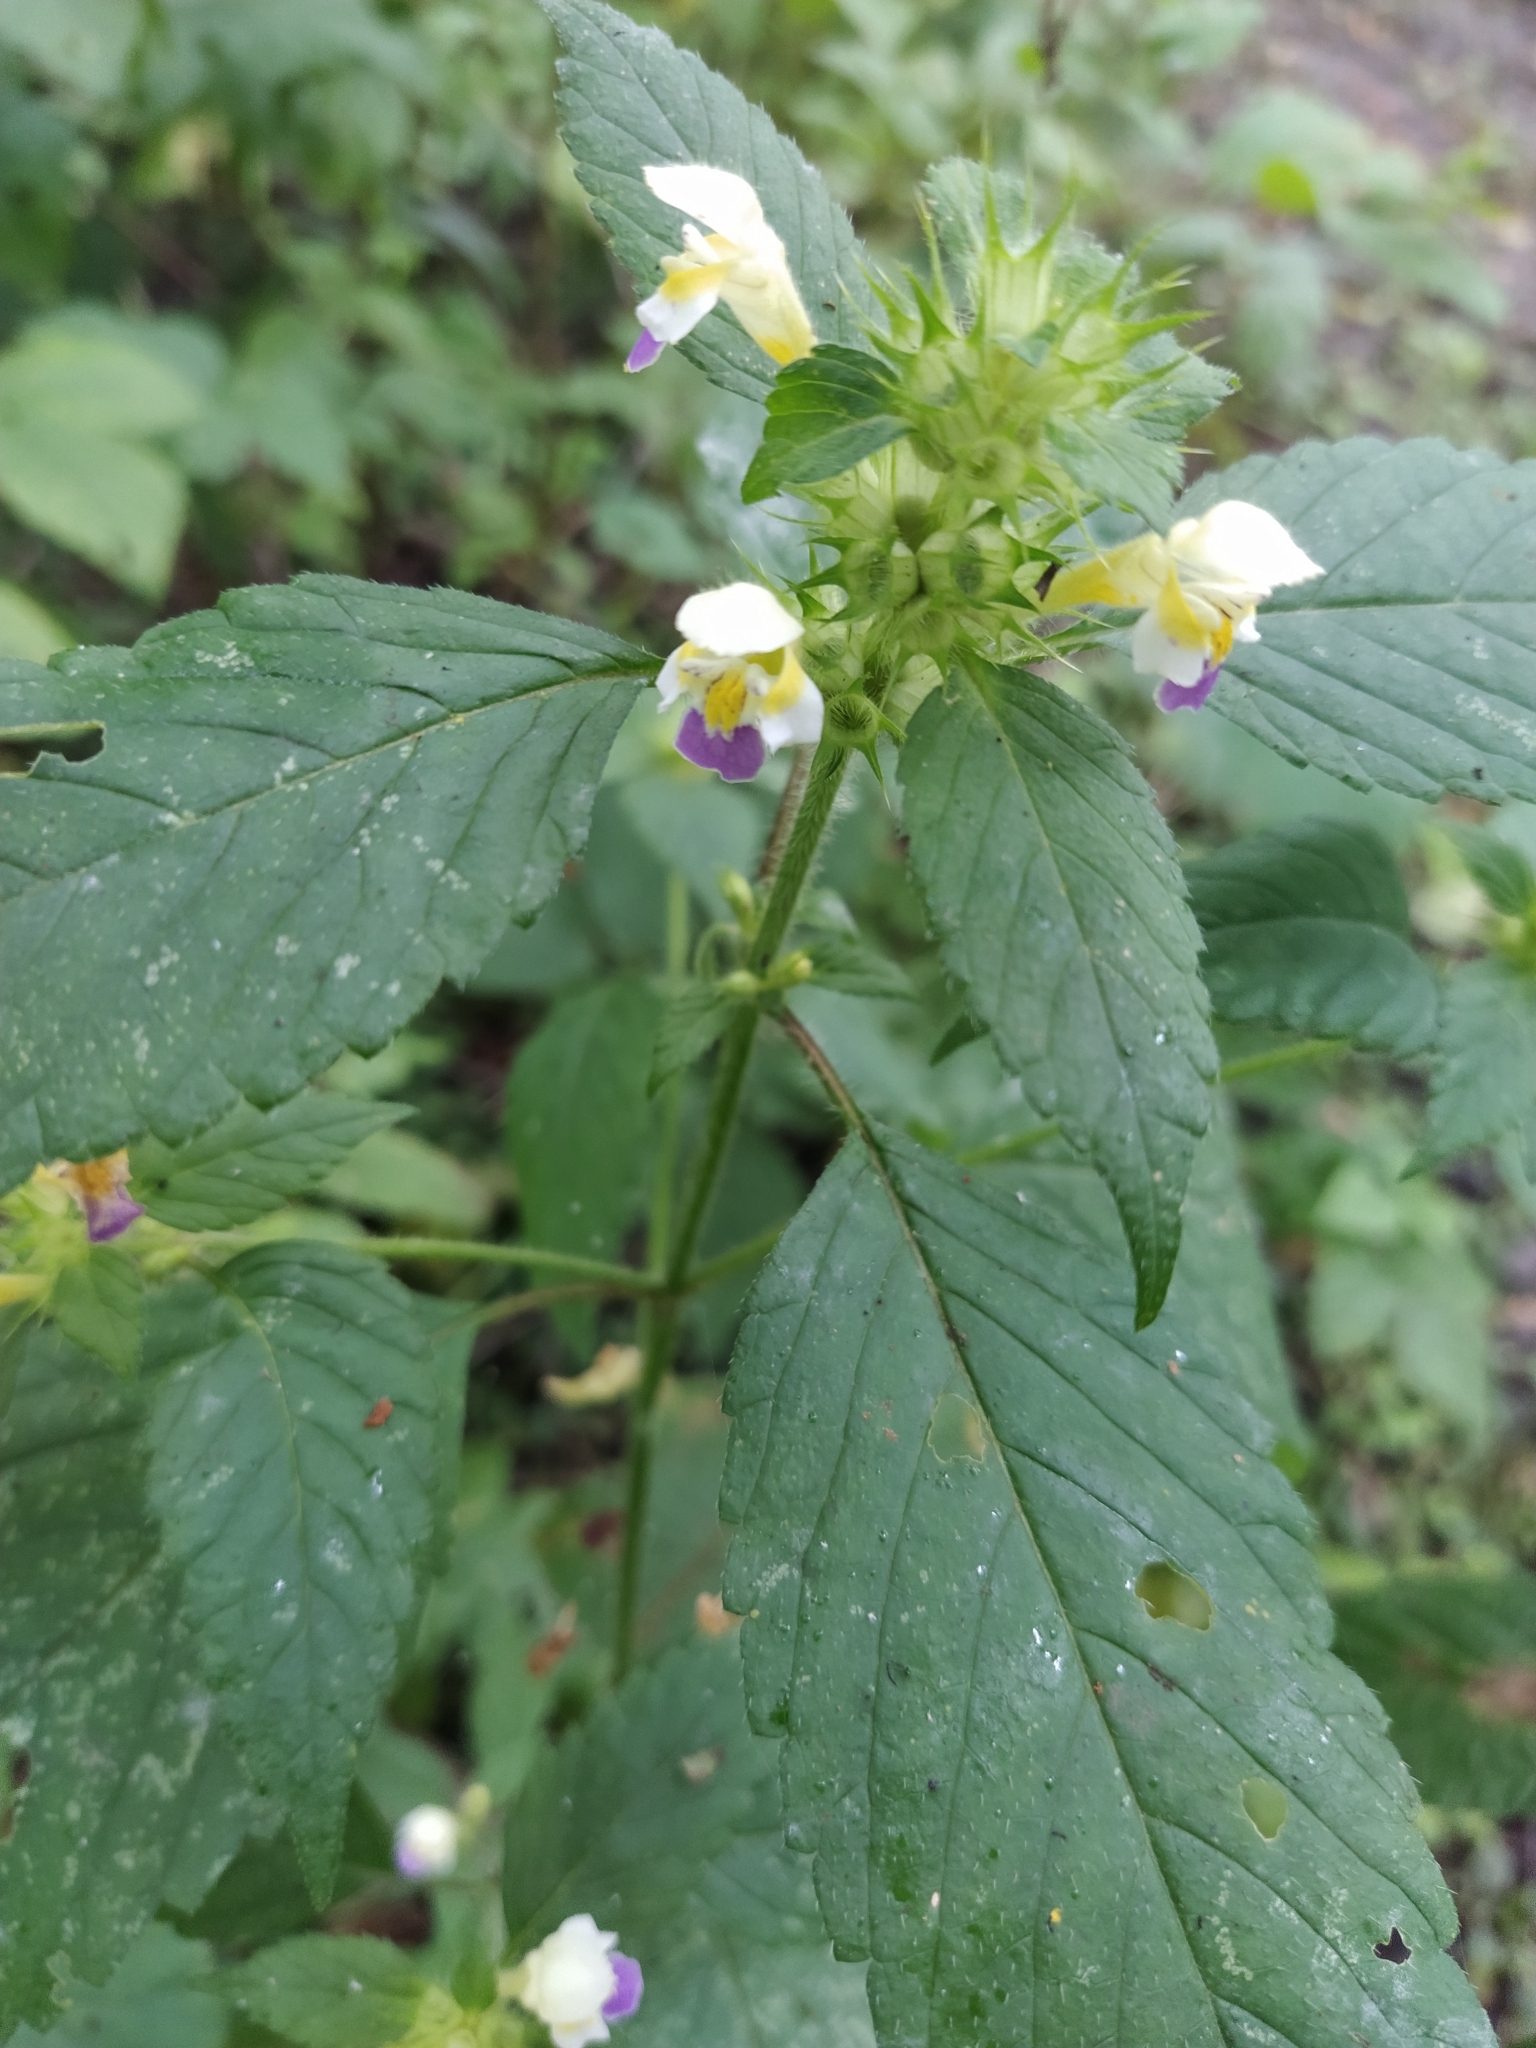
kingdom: Plantae
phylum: Tracheophyta
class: Magnoliopsida
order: Lamiales
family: Lamiaceae
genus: Galeopsis
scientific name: Galeopsis speciosa
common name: Large-flowered hemp-nettle
